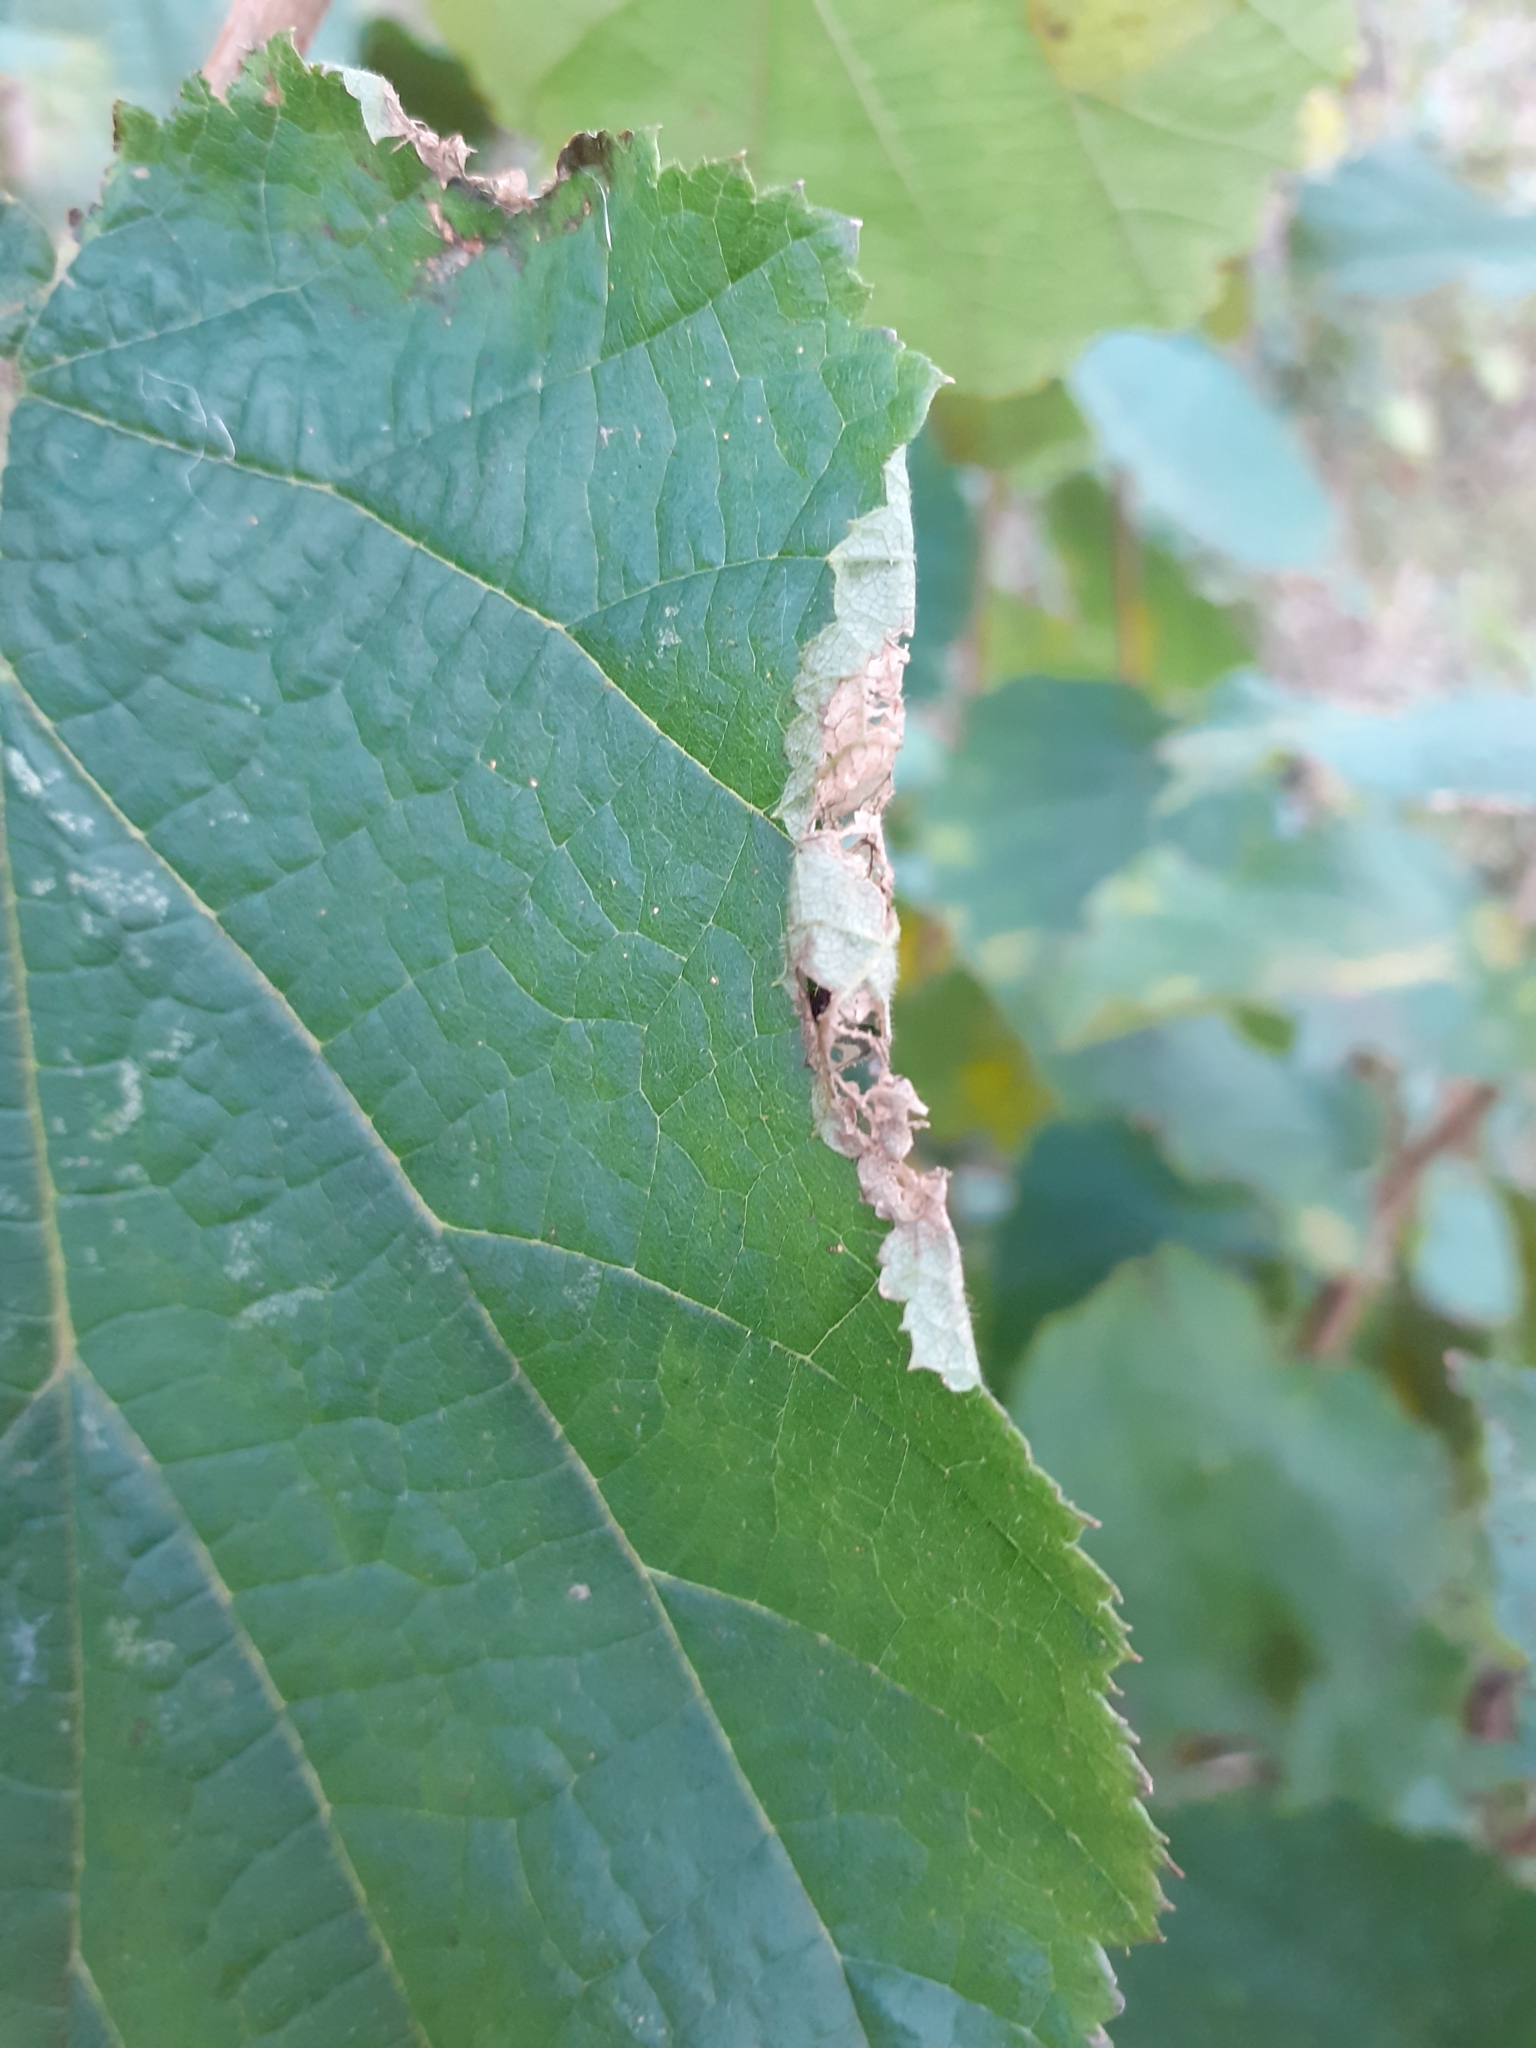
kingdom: Animalia
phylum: Arthropoda
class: Insecta
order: Lepidoptera
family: Gracillariidae
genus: Parornix
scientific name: Parornix devoniella
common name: Hazel slender
